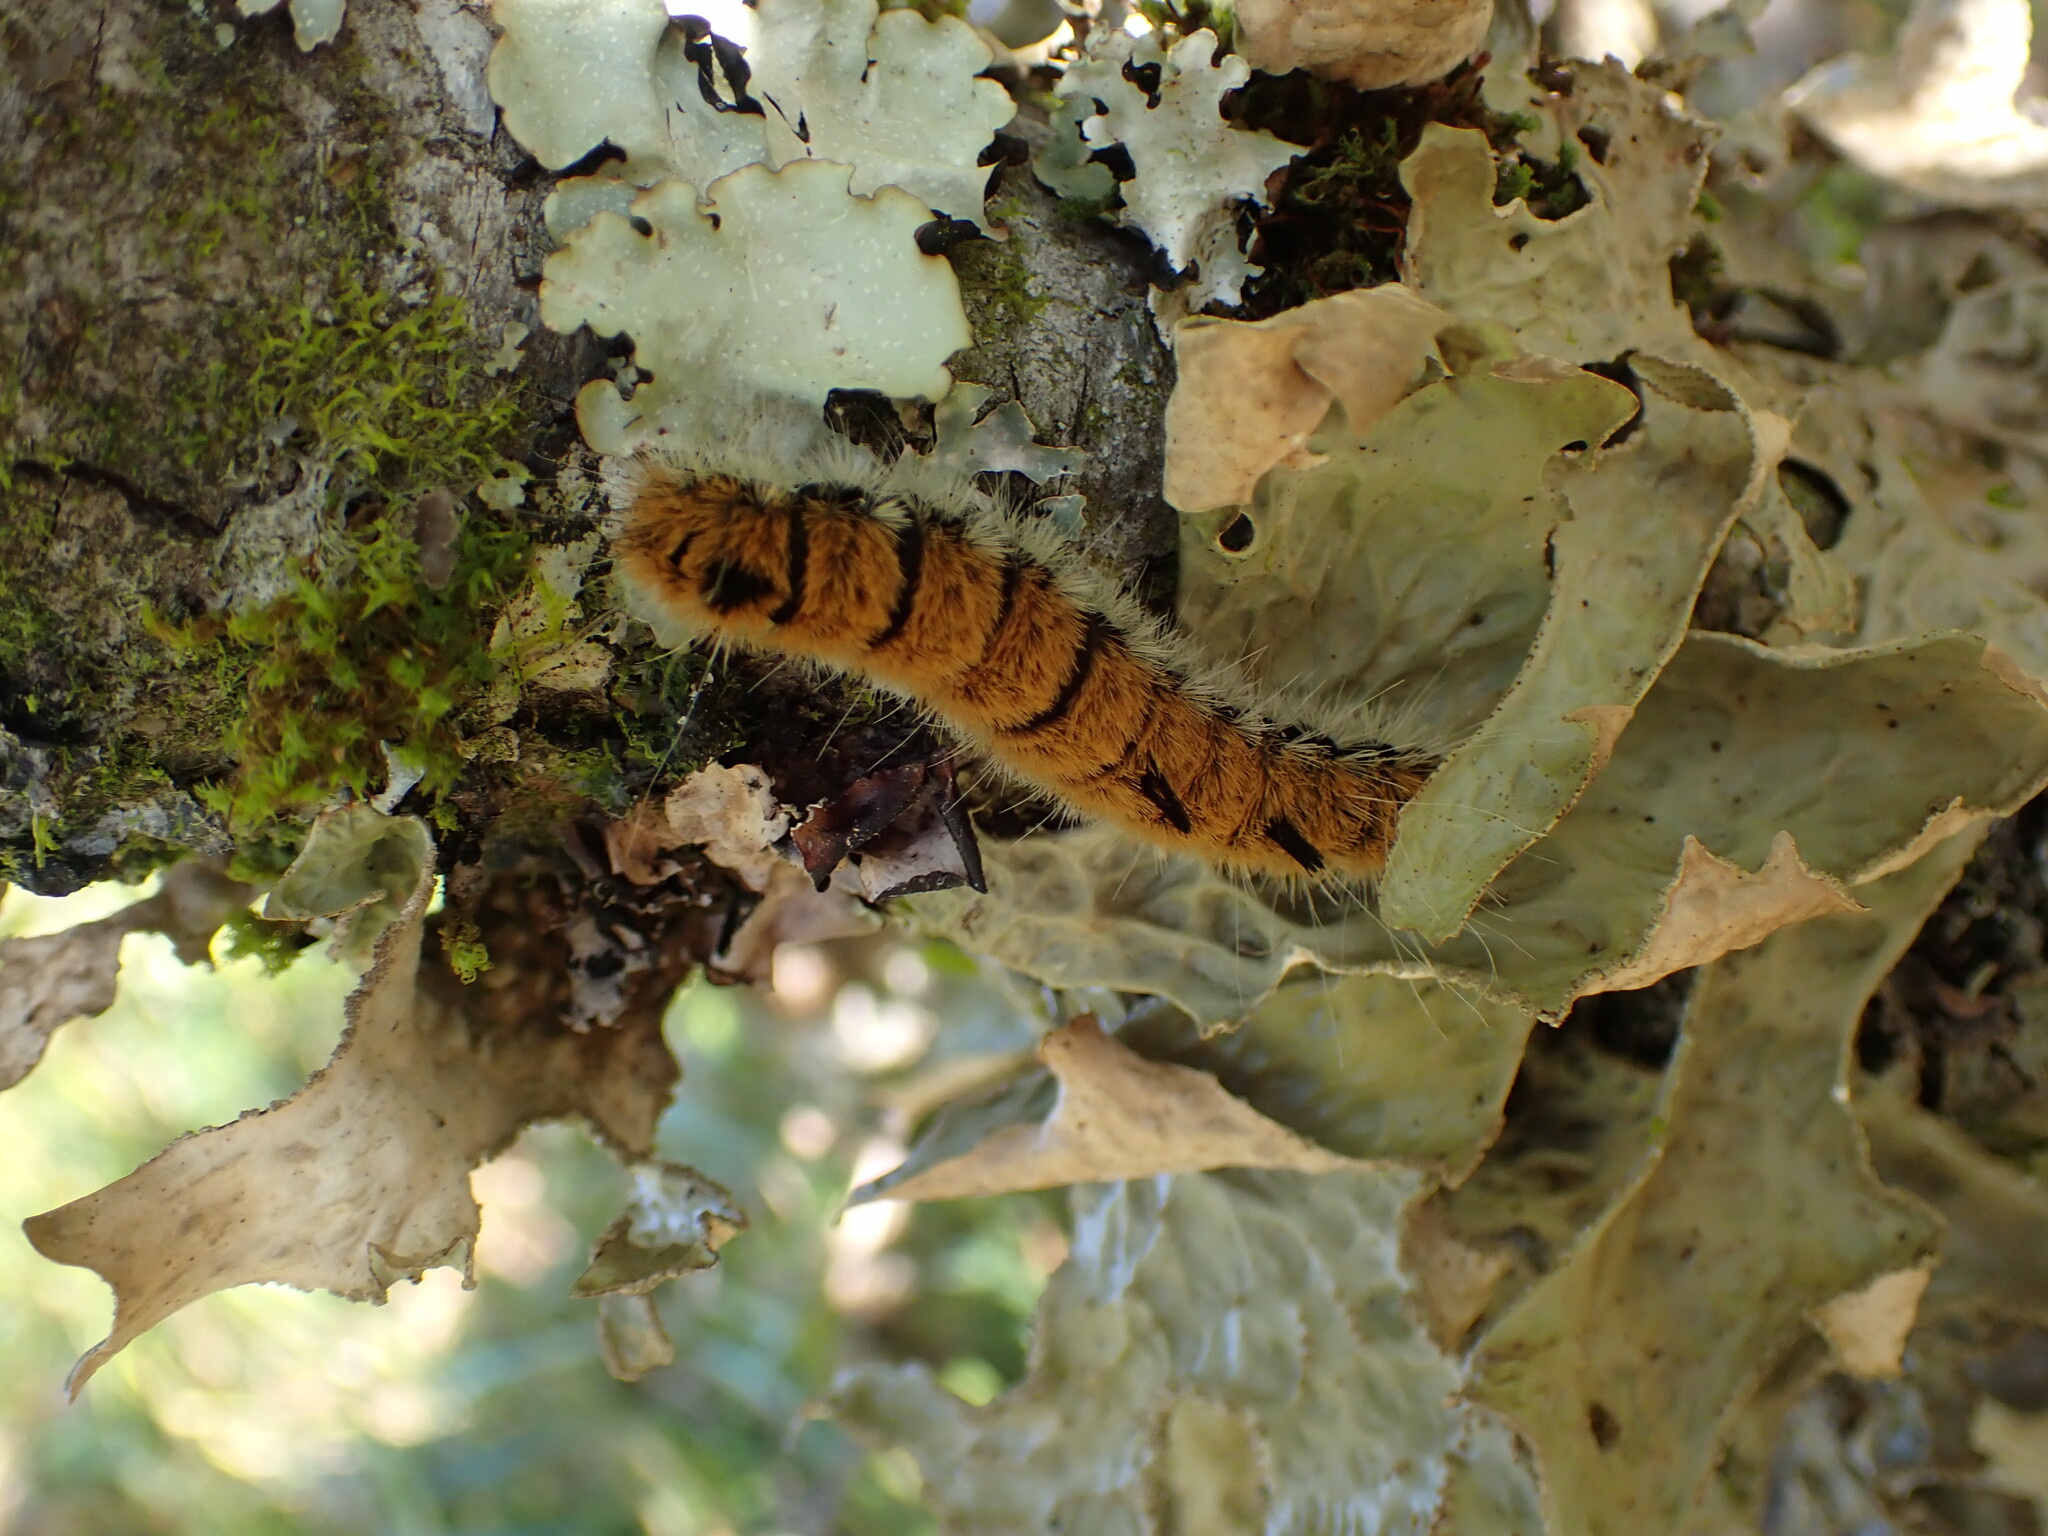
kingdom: Animalia
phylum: Arthropoda
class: Insecta
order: Lepidoptera
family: Noctuidae
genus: Acronicta
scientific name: Acronicta insita
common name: Large gray dagger
